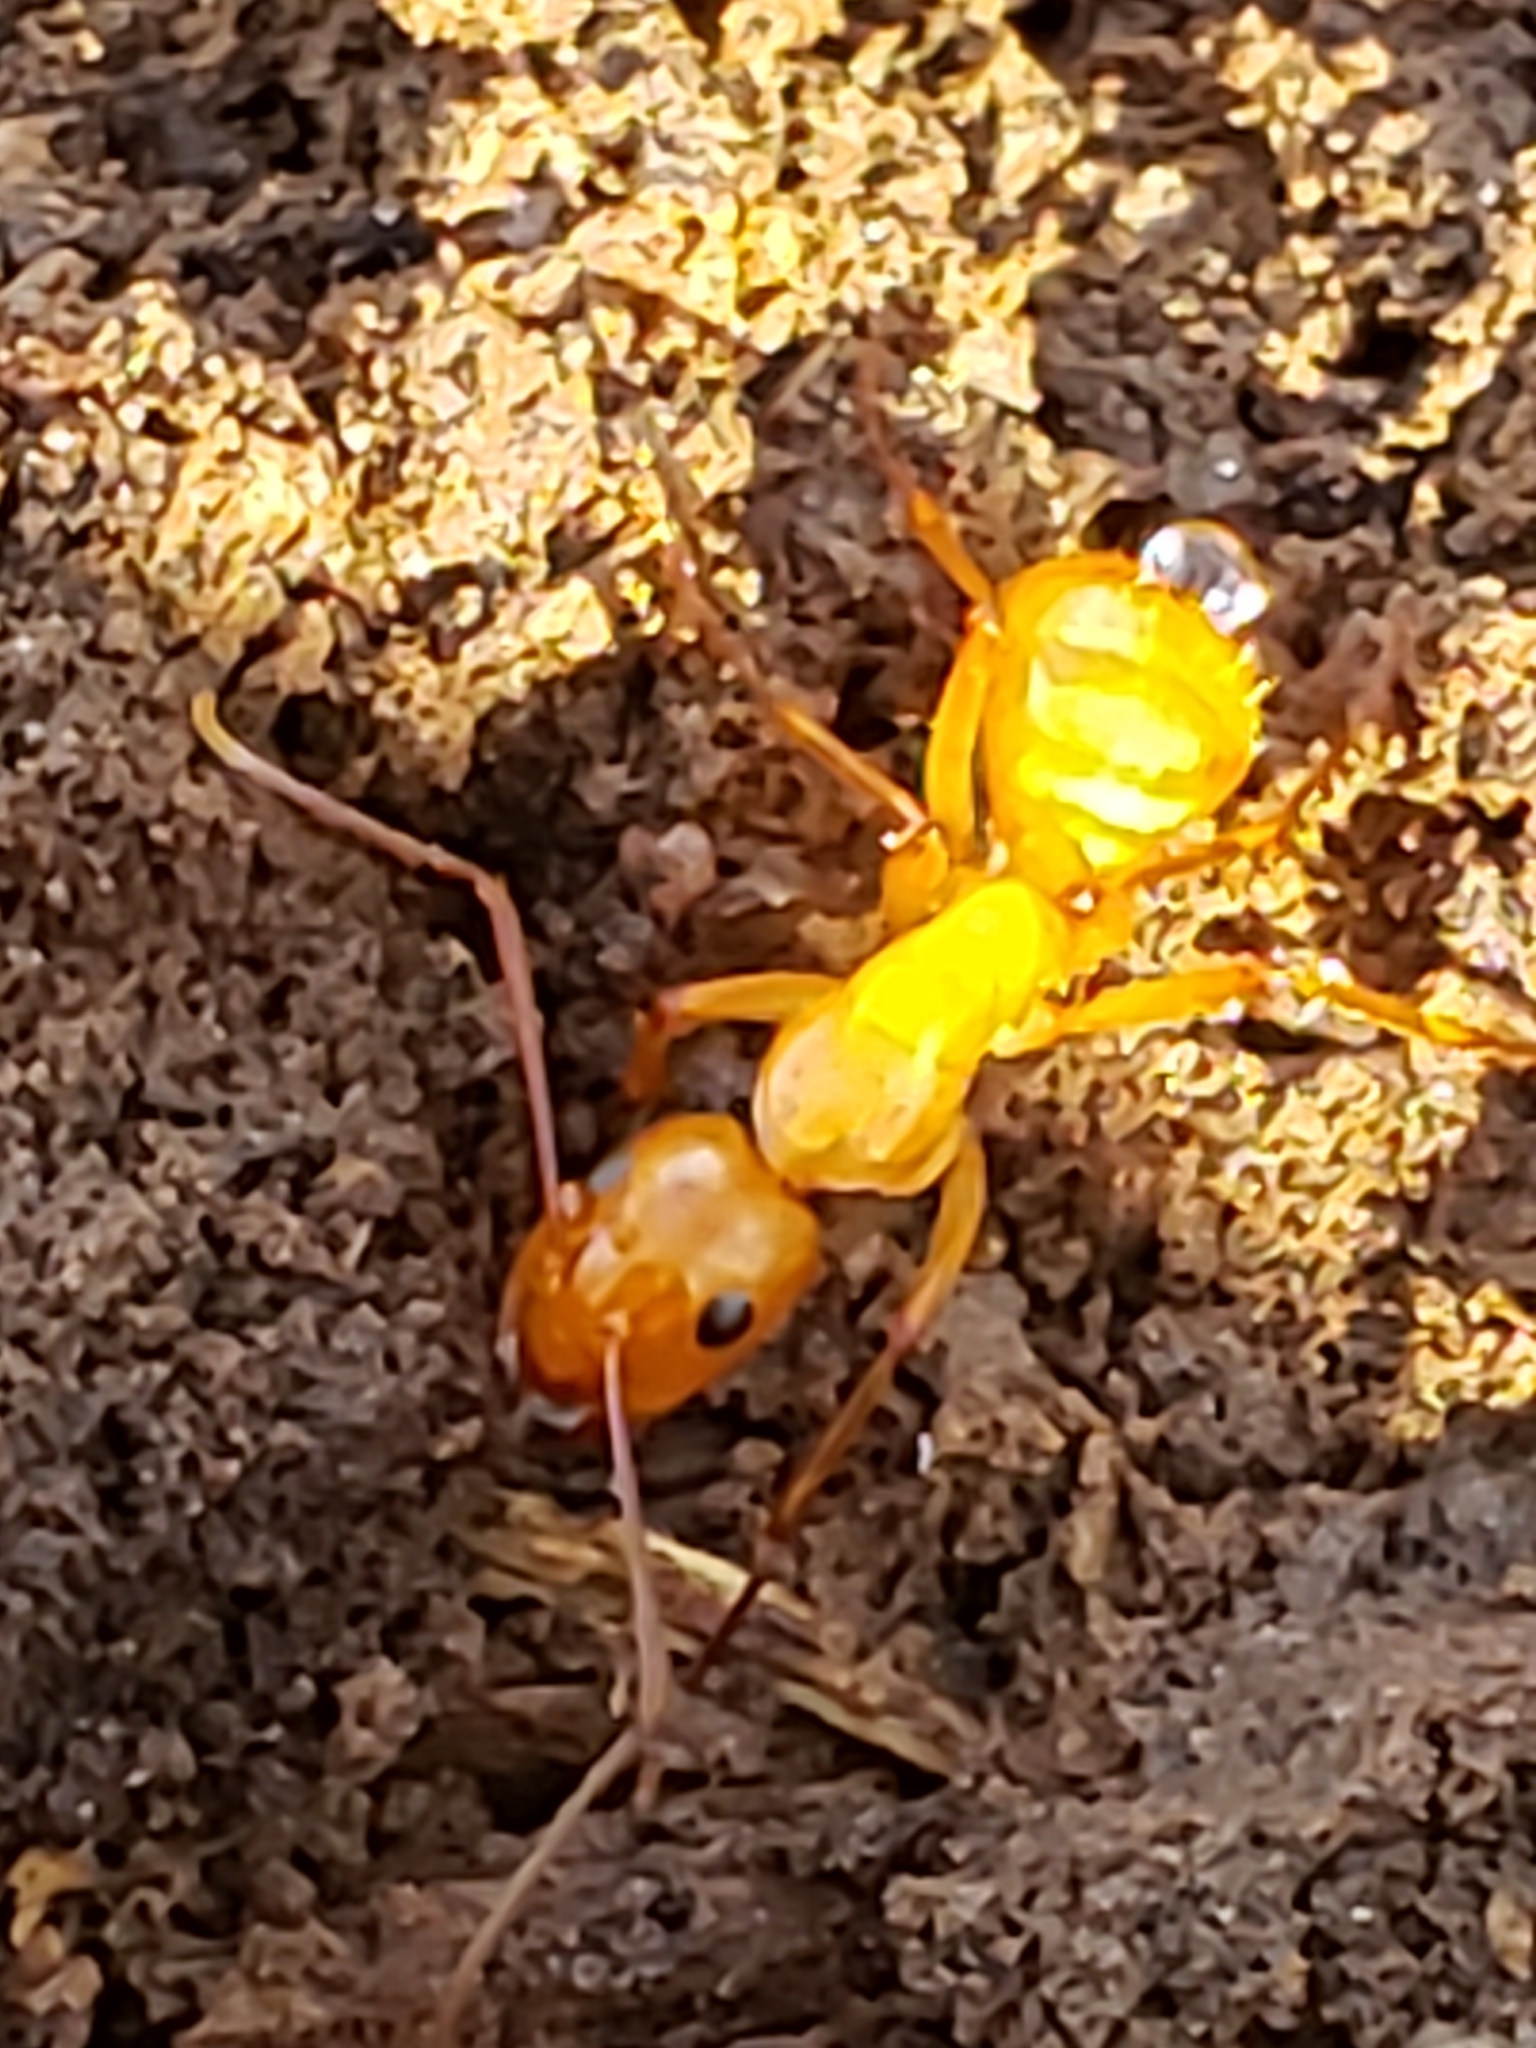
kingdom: Animalia
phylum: Arthropoda
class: Insecta
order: Hymenoptera
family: Formicidae
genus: Camponotus
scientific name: Camponotus castaneus
